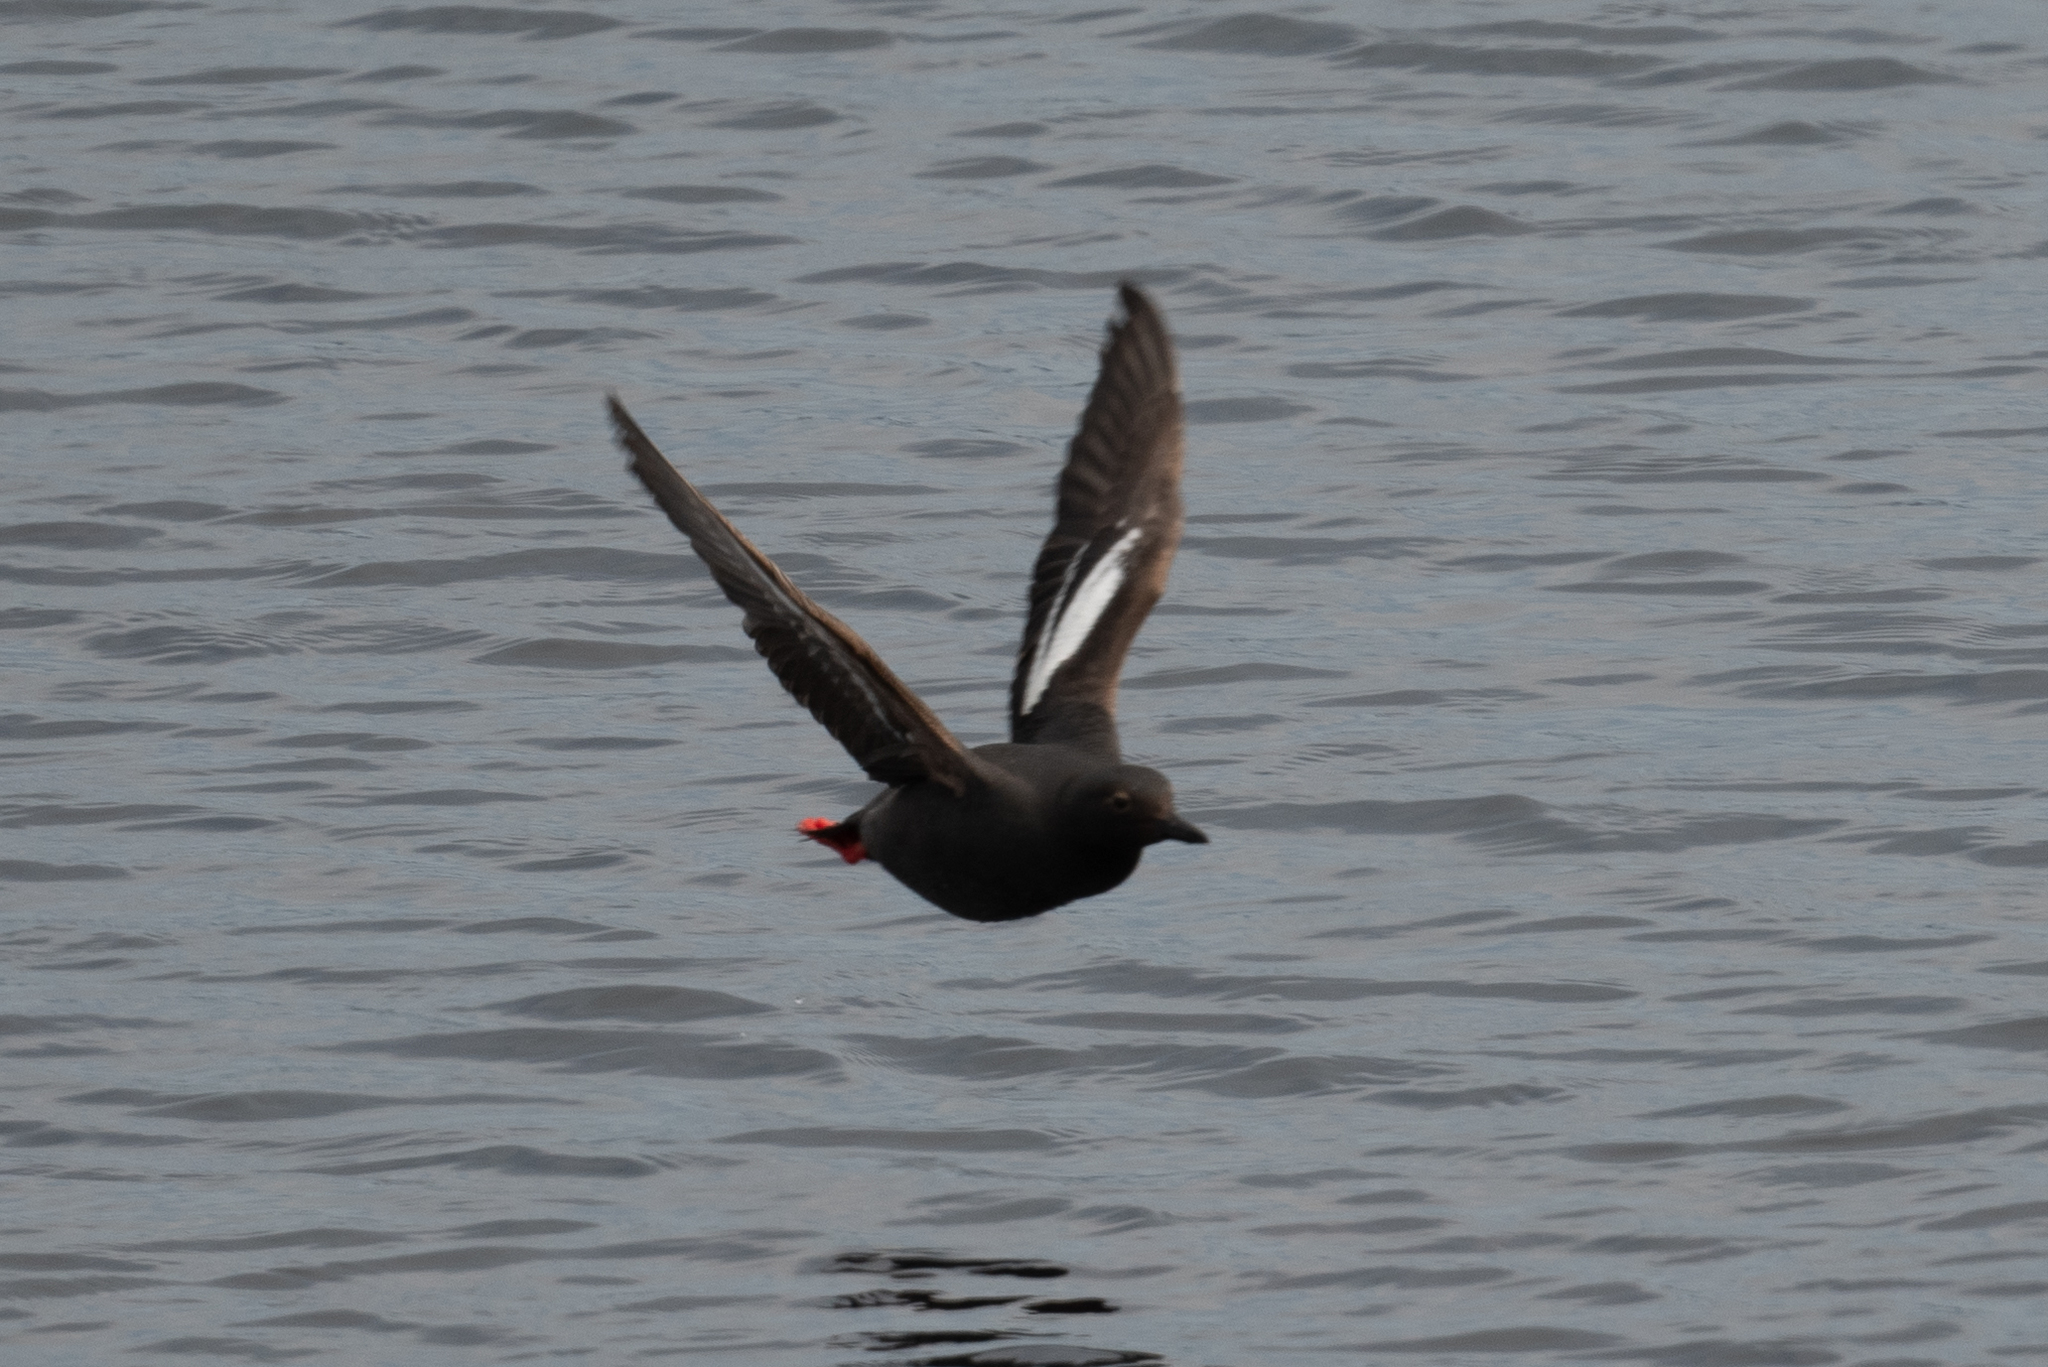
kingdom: Animalia
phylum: Chordata
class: Aves
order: Charadriiformes
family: Alcidae
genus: Cepphus
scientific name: Cepphus columba
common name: Pigeon guillemot
